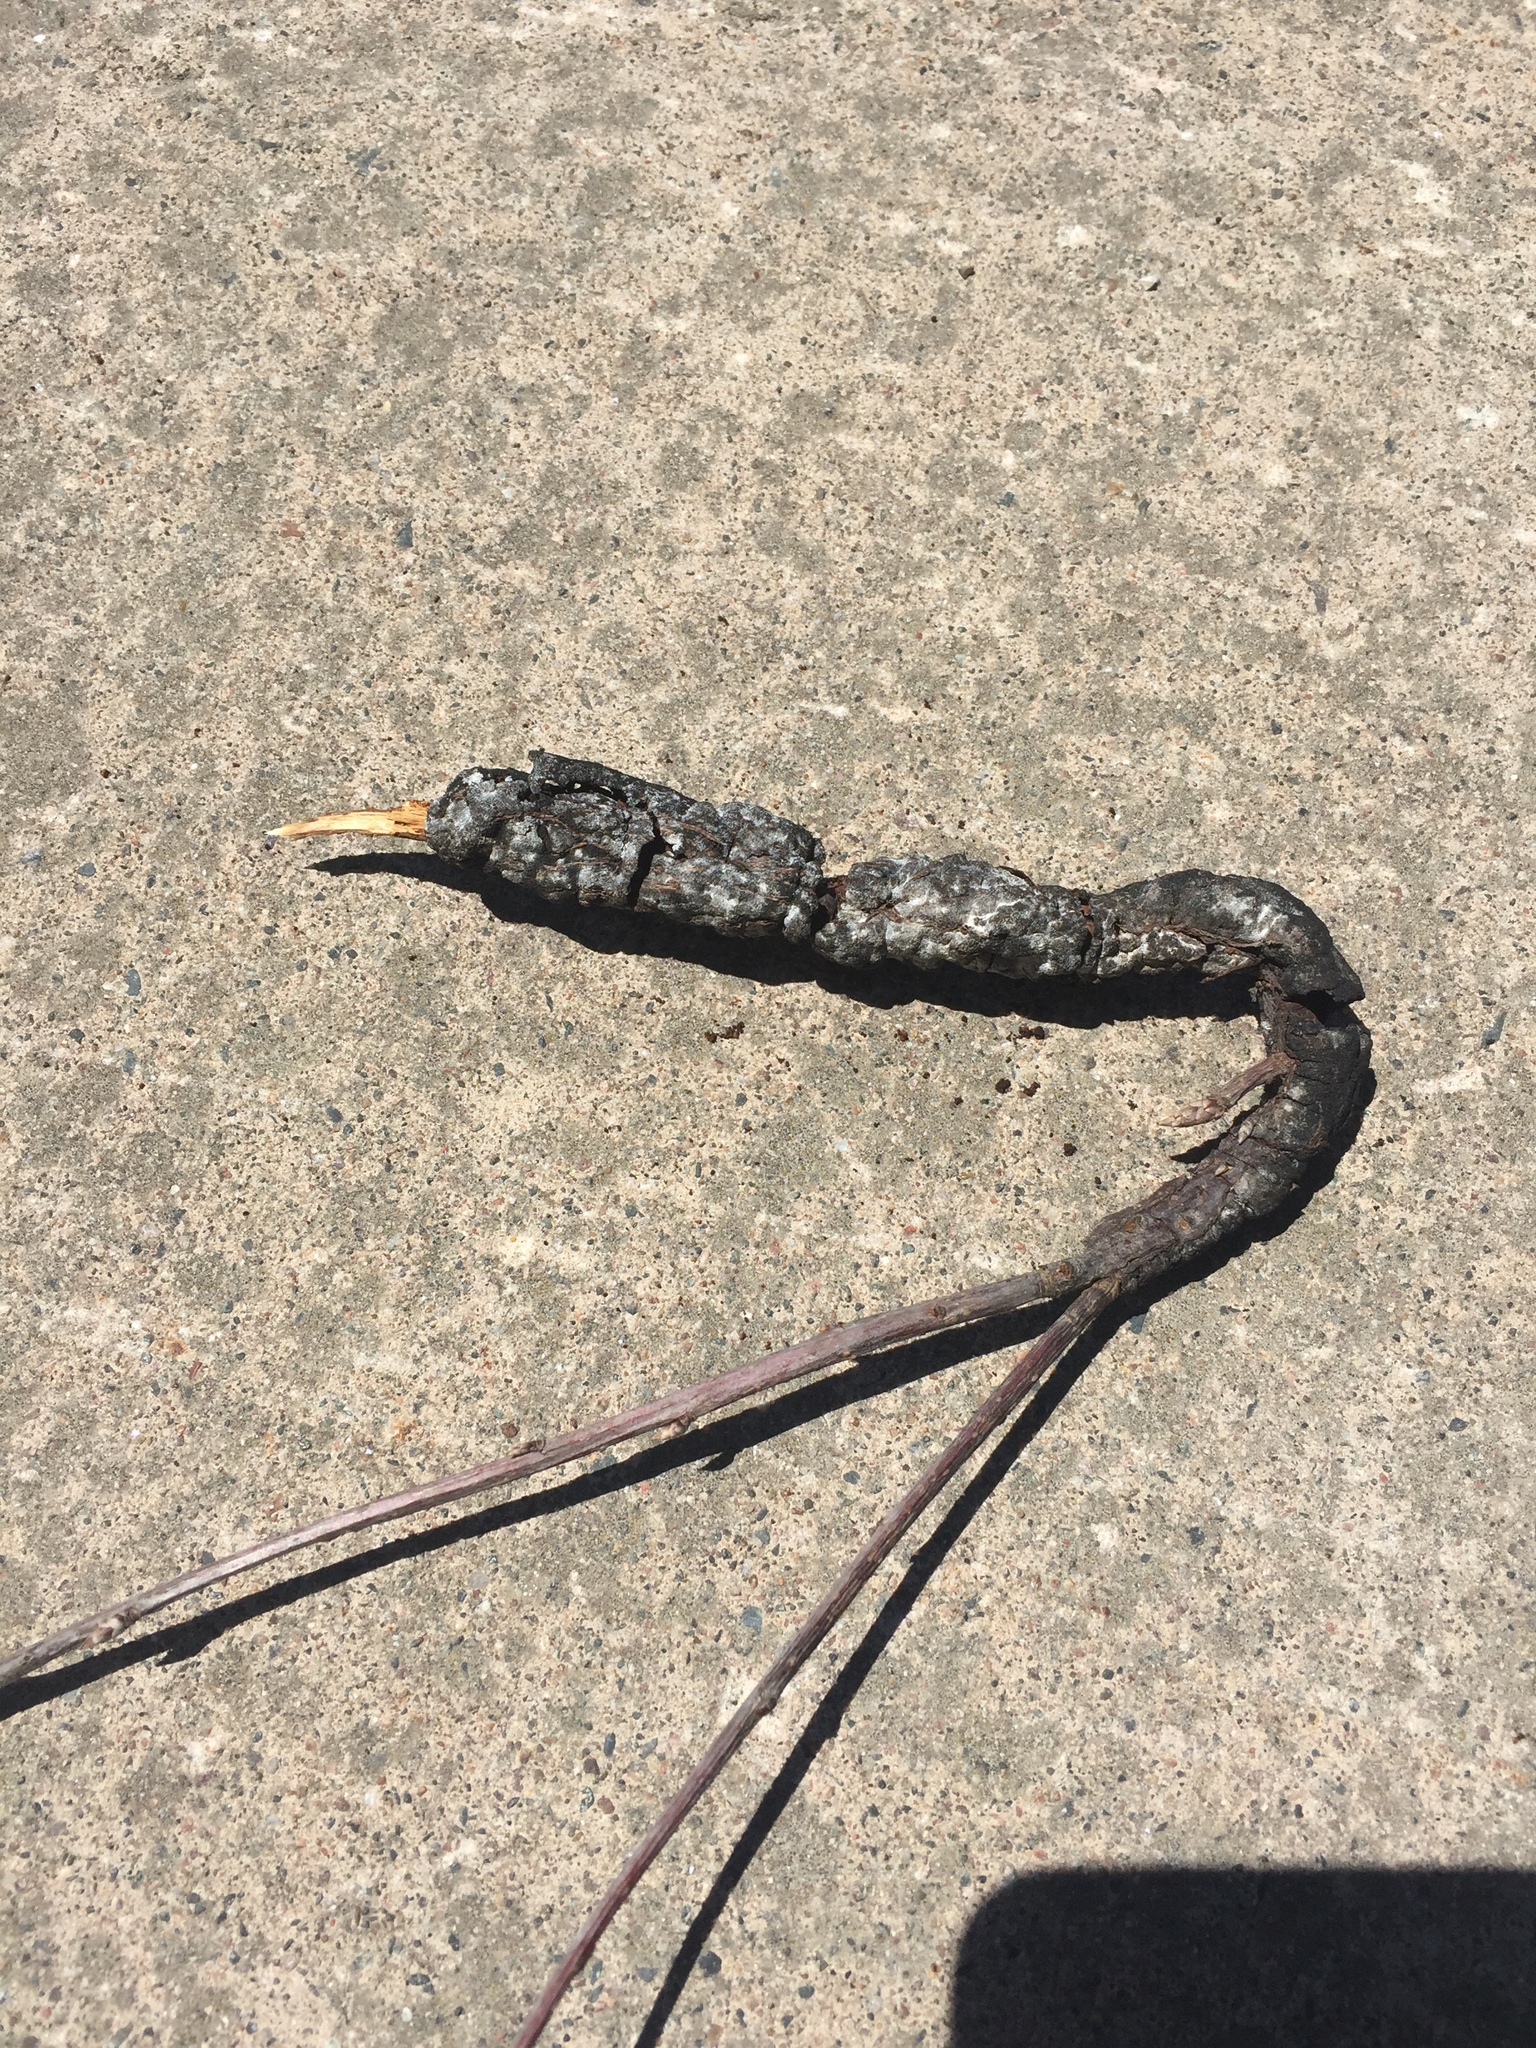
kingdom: Fungi
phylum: Ascomycota
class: Dothideomycetes
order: Venturiales
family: Venturiaceae
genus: Apiosporina
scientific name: Apiosporina morbosa
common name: Black knot
